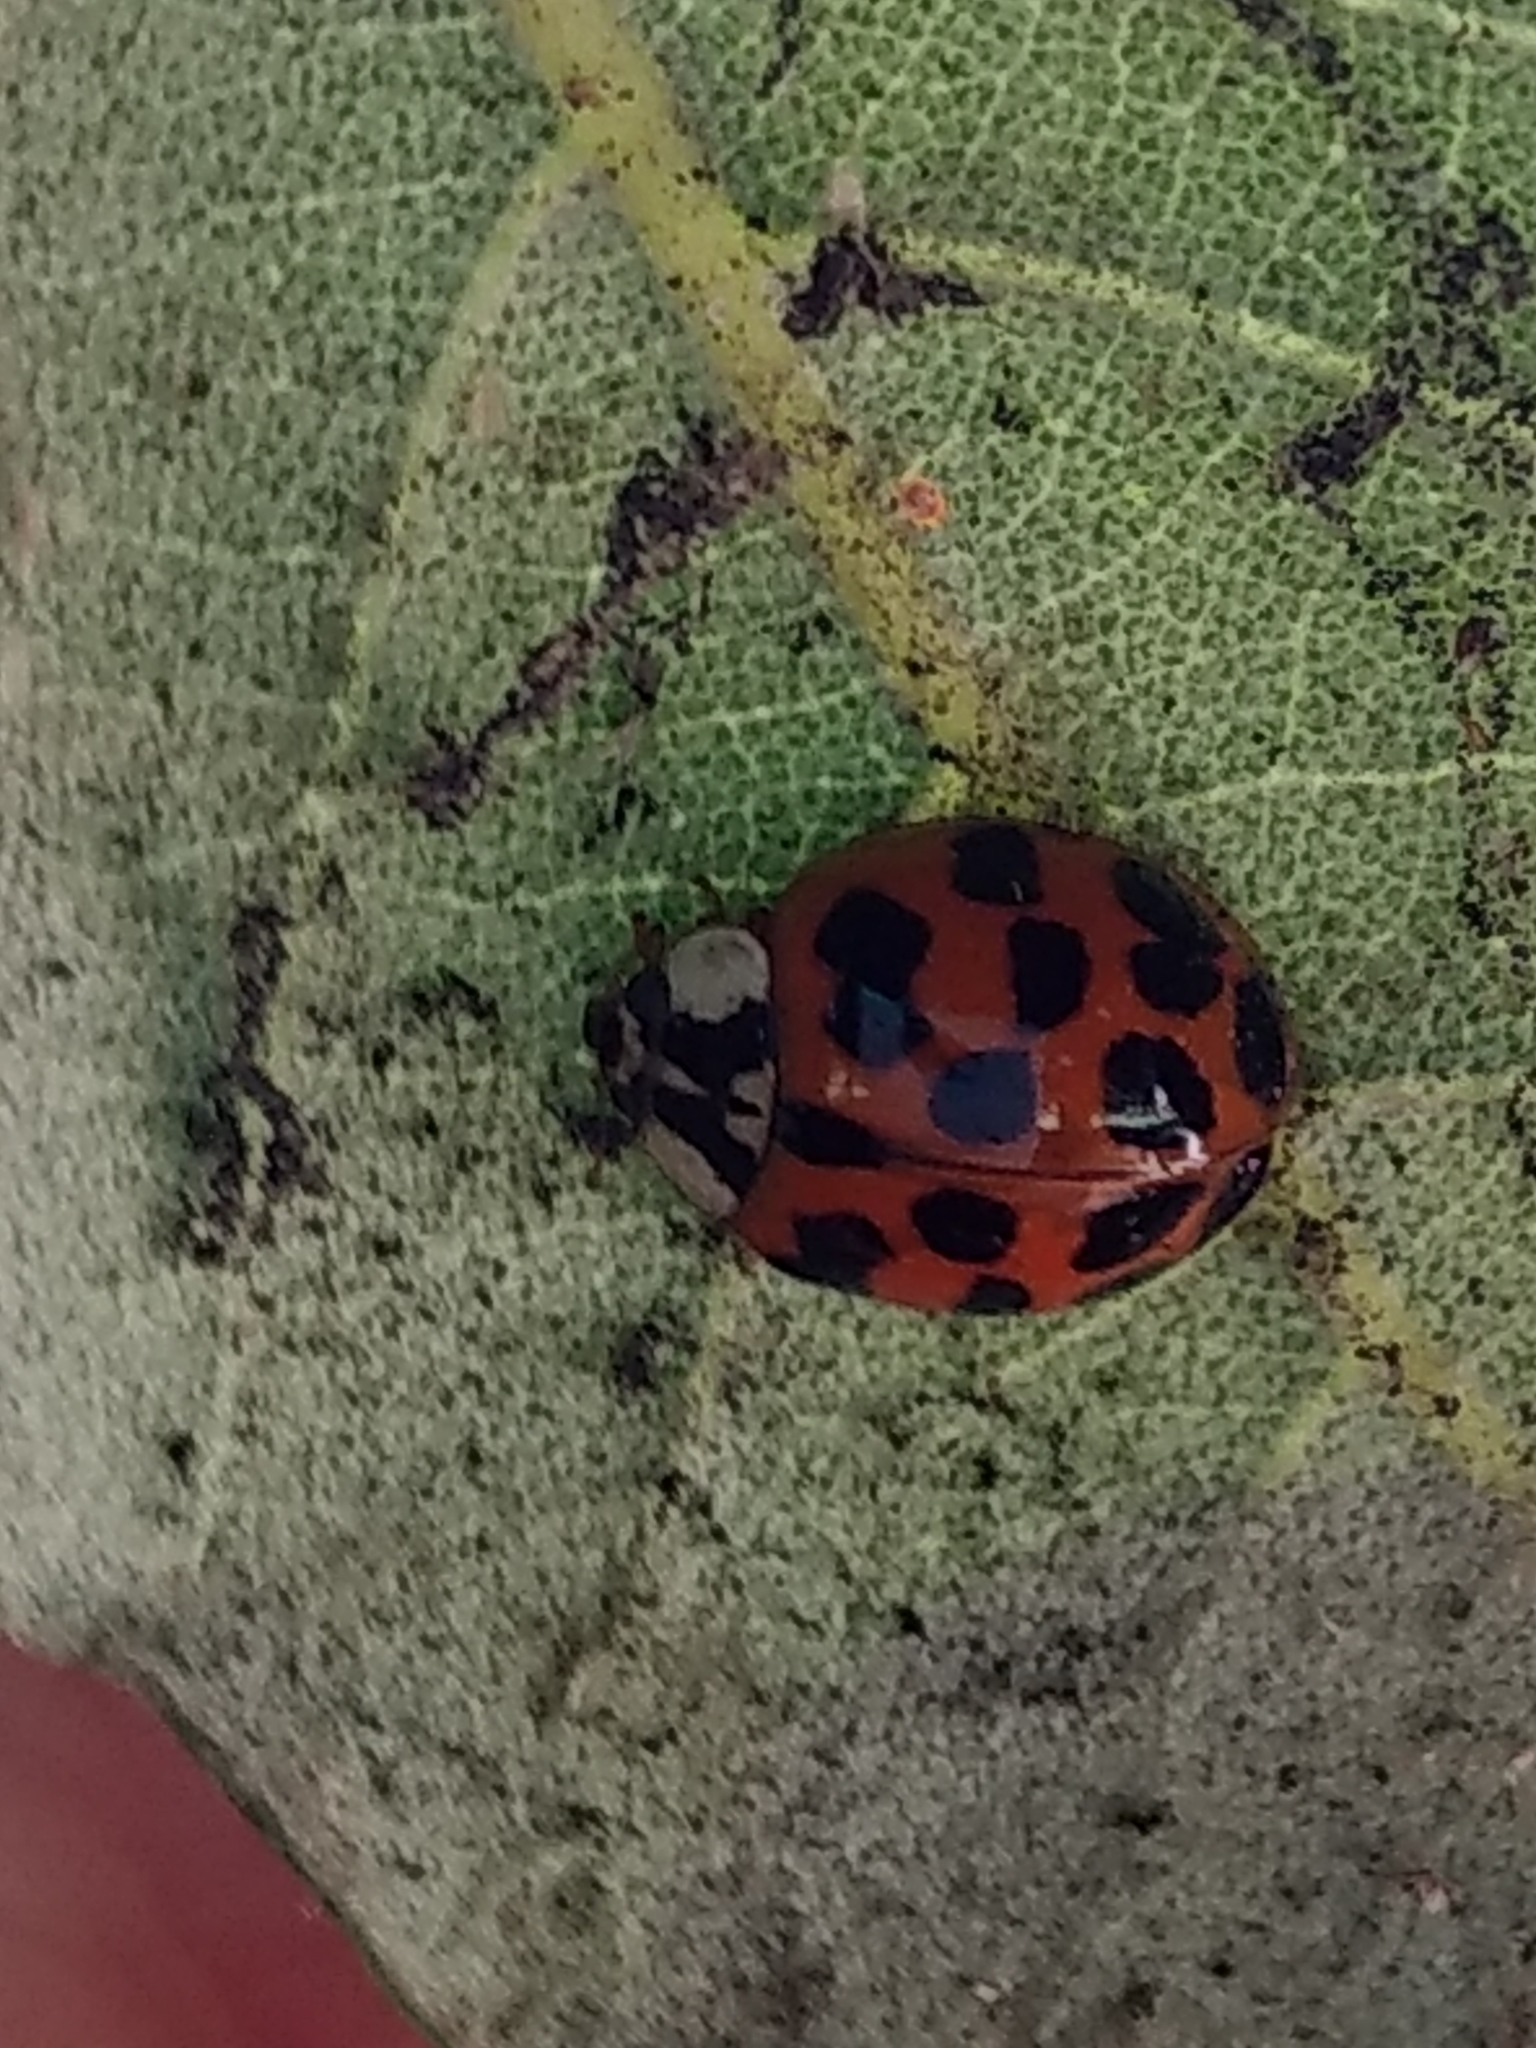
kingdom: Animalia
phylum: Arthropoda
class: Insecta
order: Coleoptera
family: Coccinellidae
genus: Harmonia
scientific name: Harmonia axyridis
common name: Harlequin ladybird
